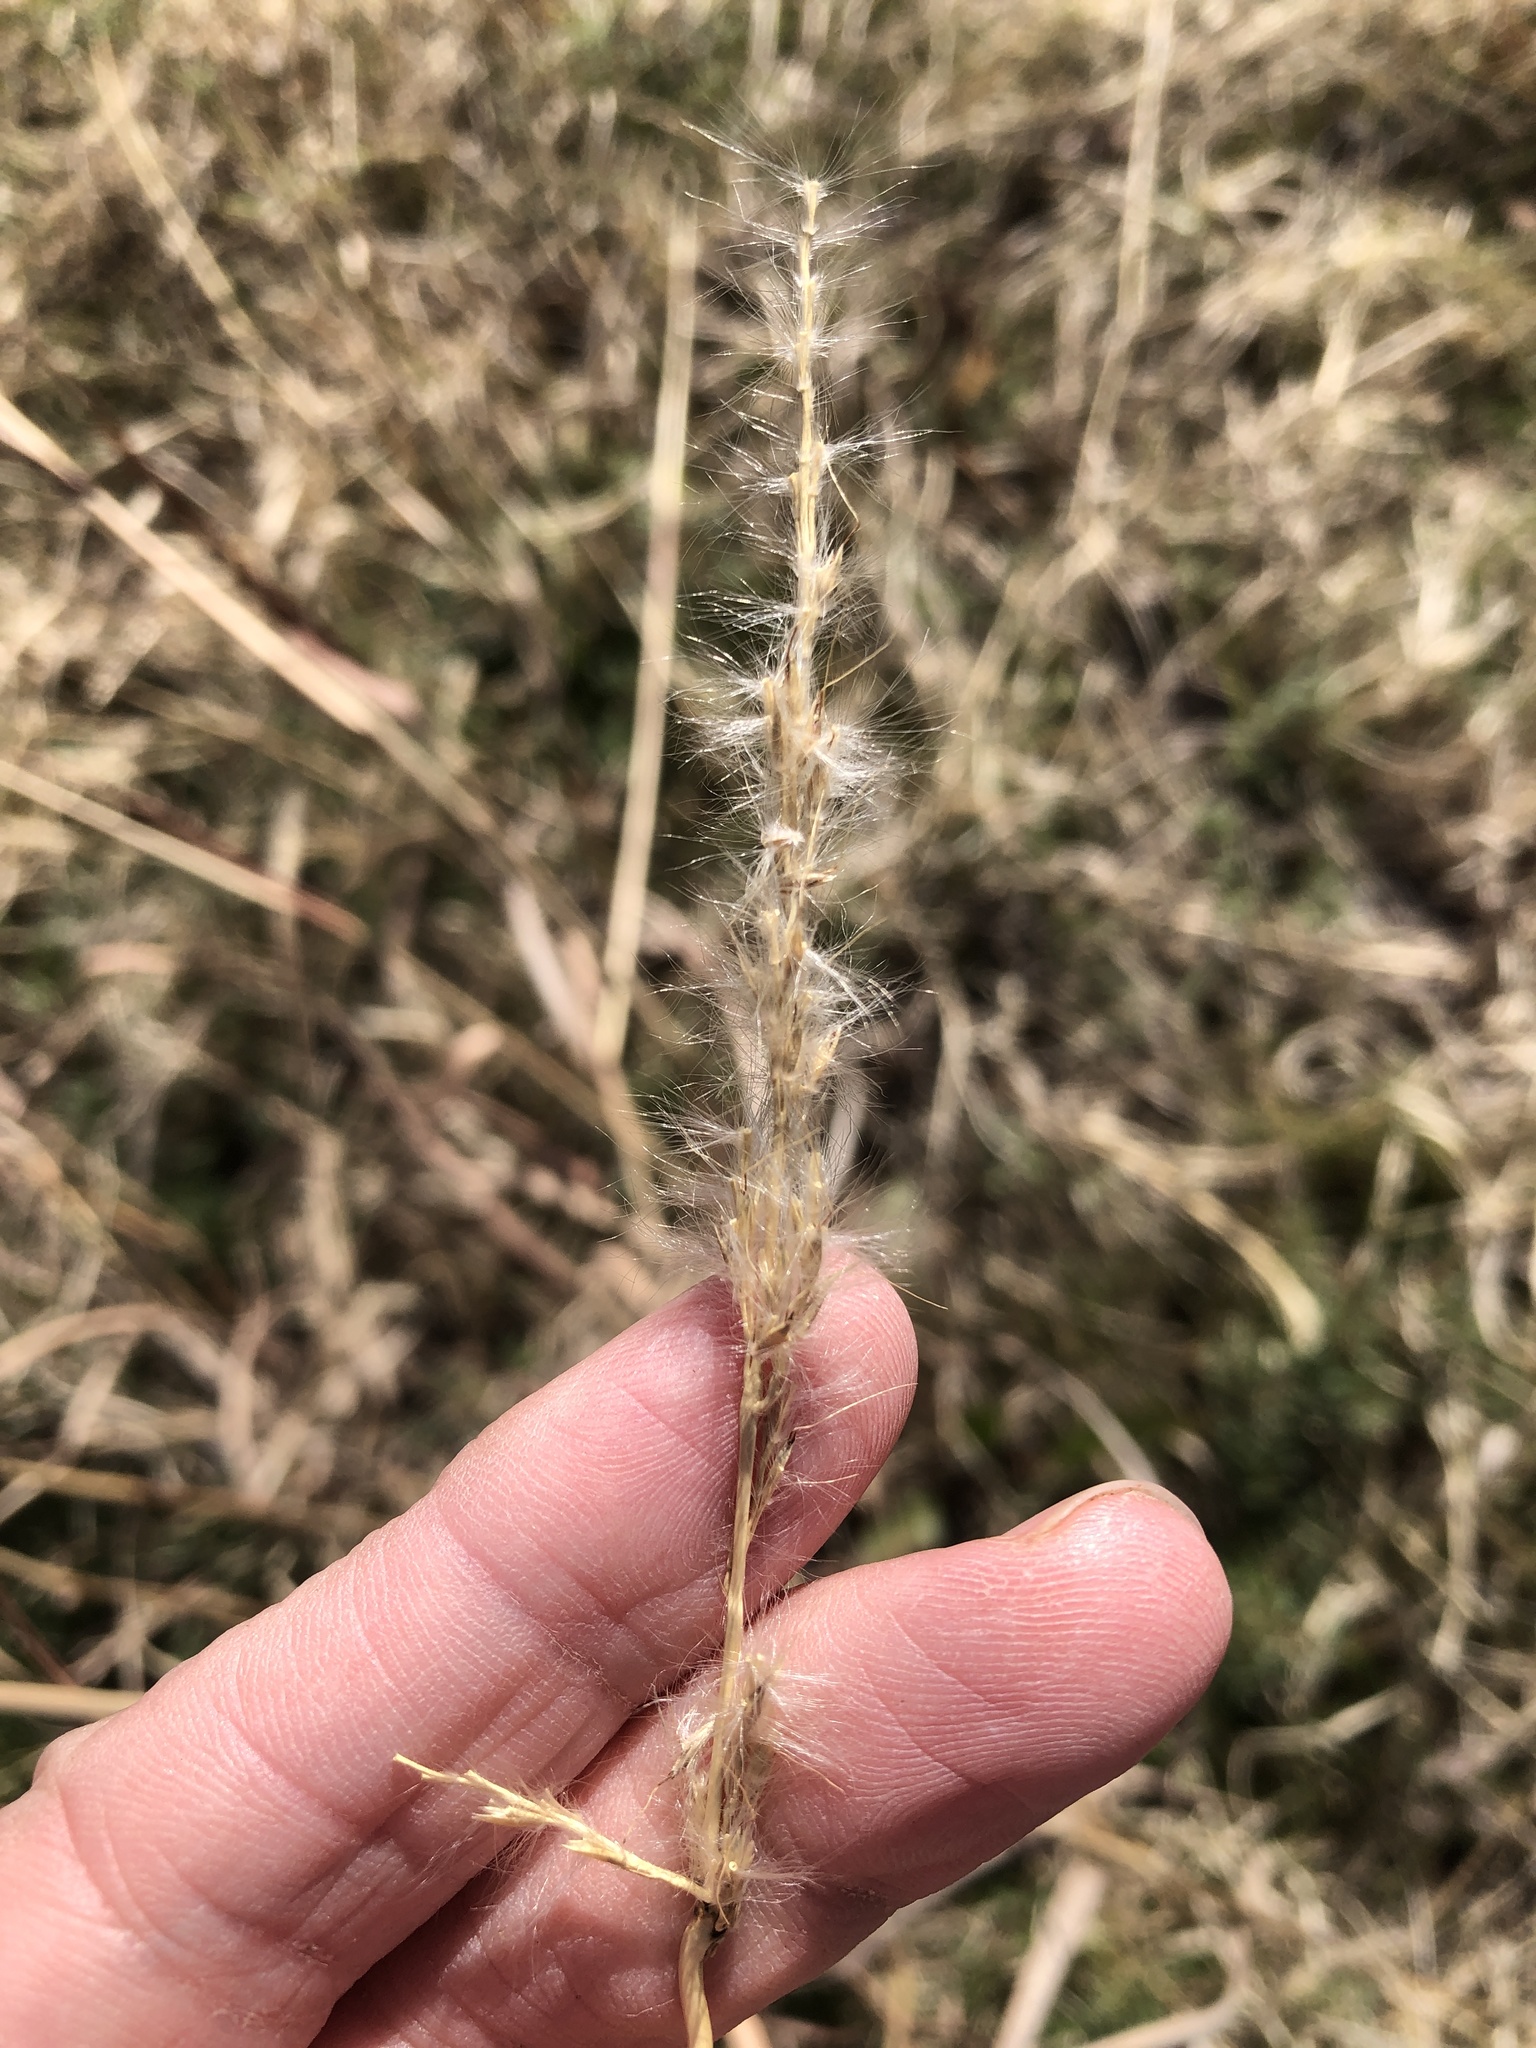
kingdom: Plantae
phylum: Tracheophyta
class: Liliopsida
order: Poales
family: Poaceae
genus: Bothriochloa
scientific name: Bothriochloa torreyana
